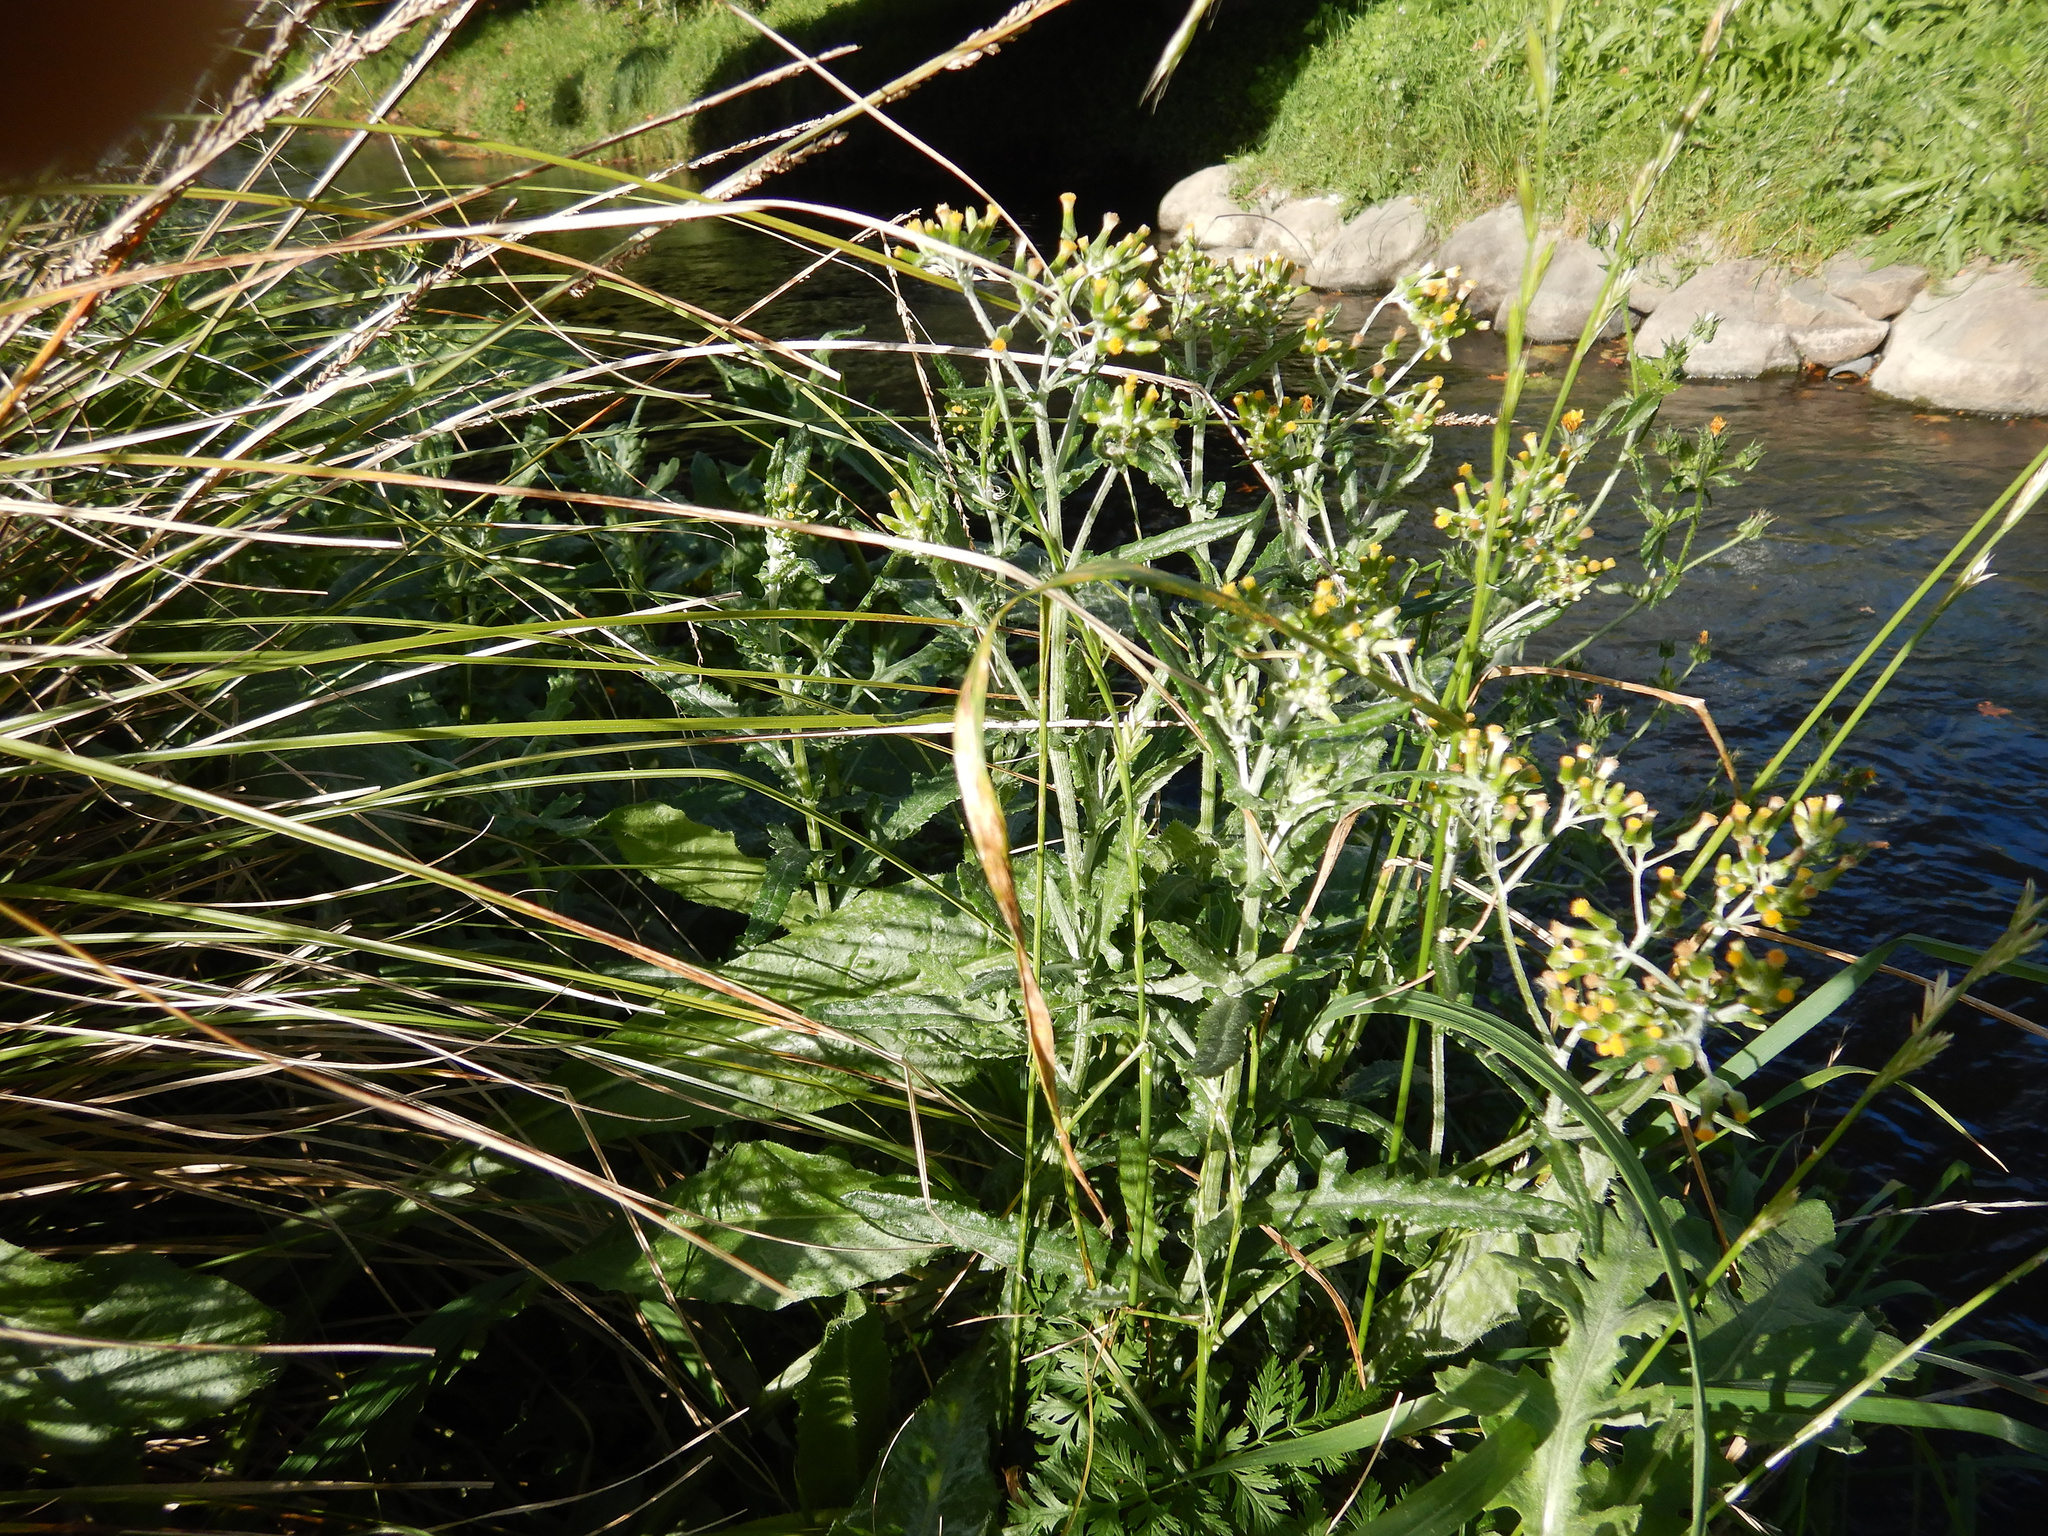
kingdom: Plantae
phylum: Tracheophyta
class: Magnoliopsida
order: Asterales
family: Asteraceae
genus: Senecio
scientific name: Senecio glomeratus
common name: Cutleaf burnweed
